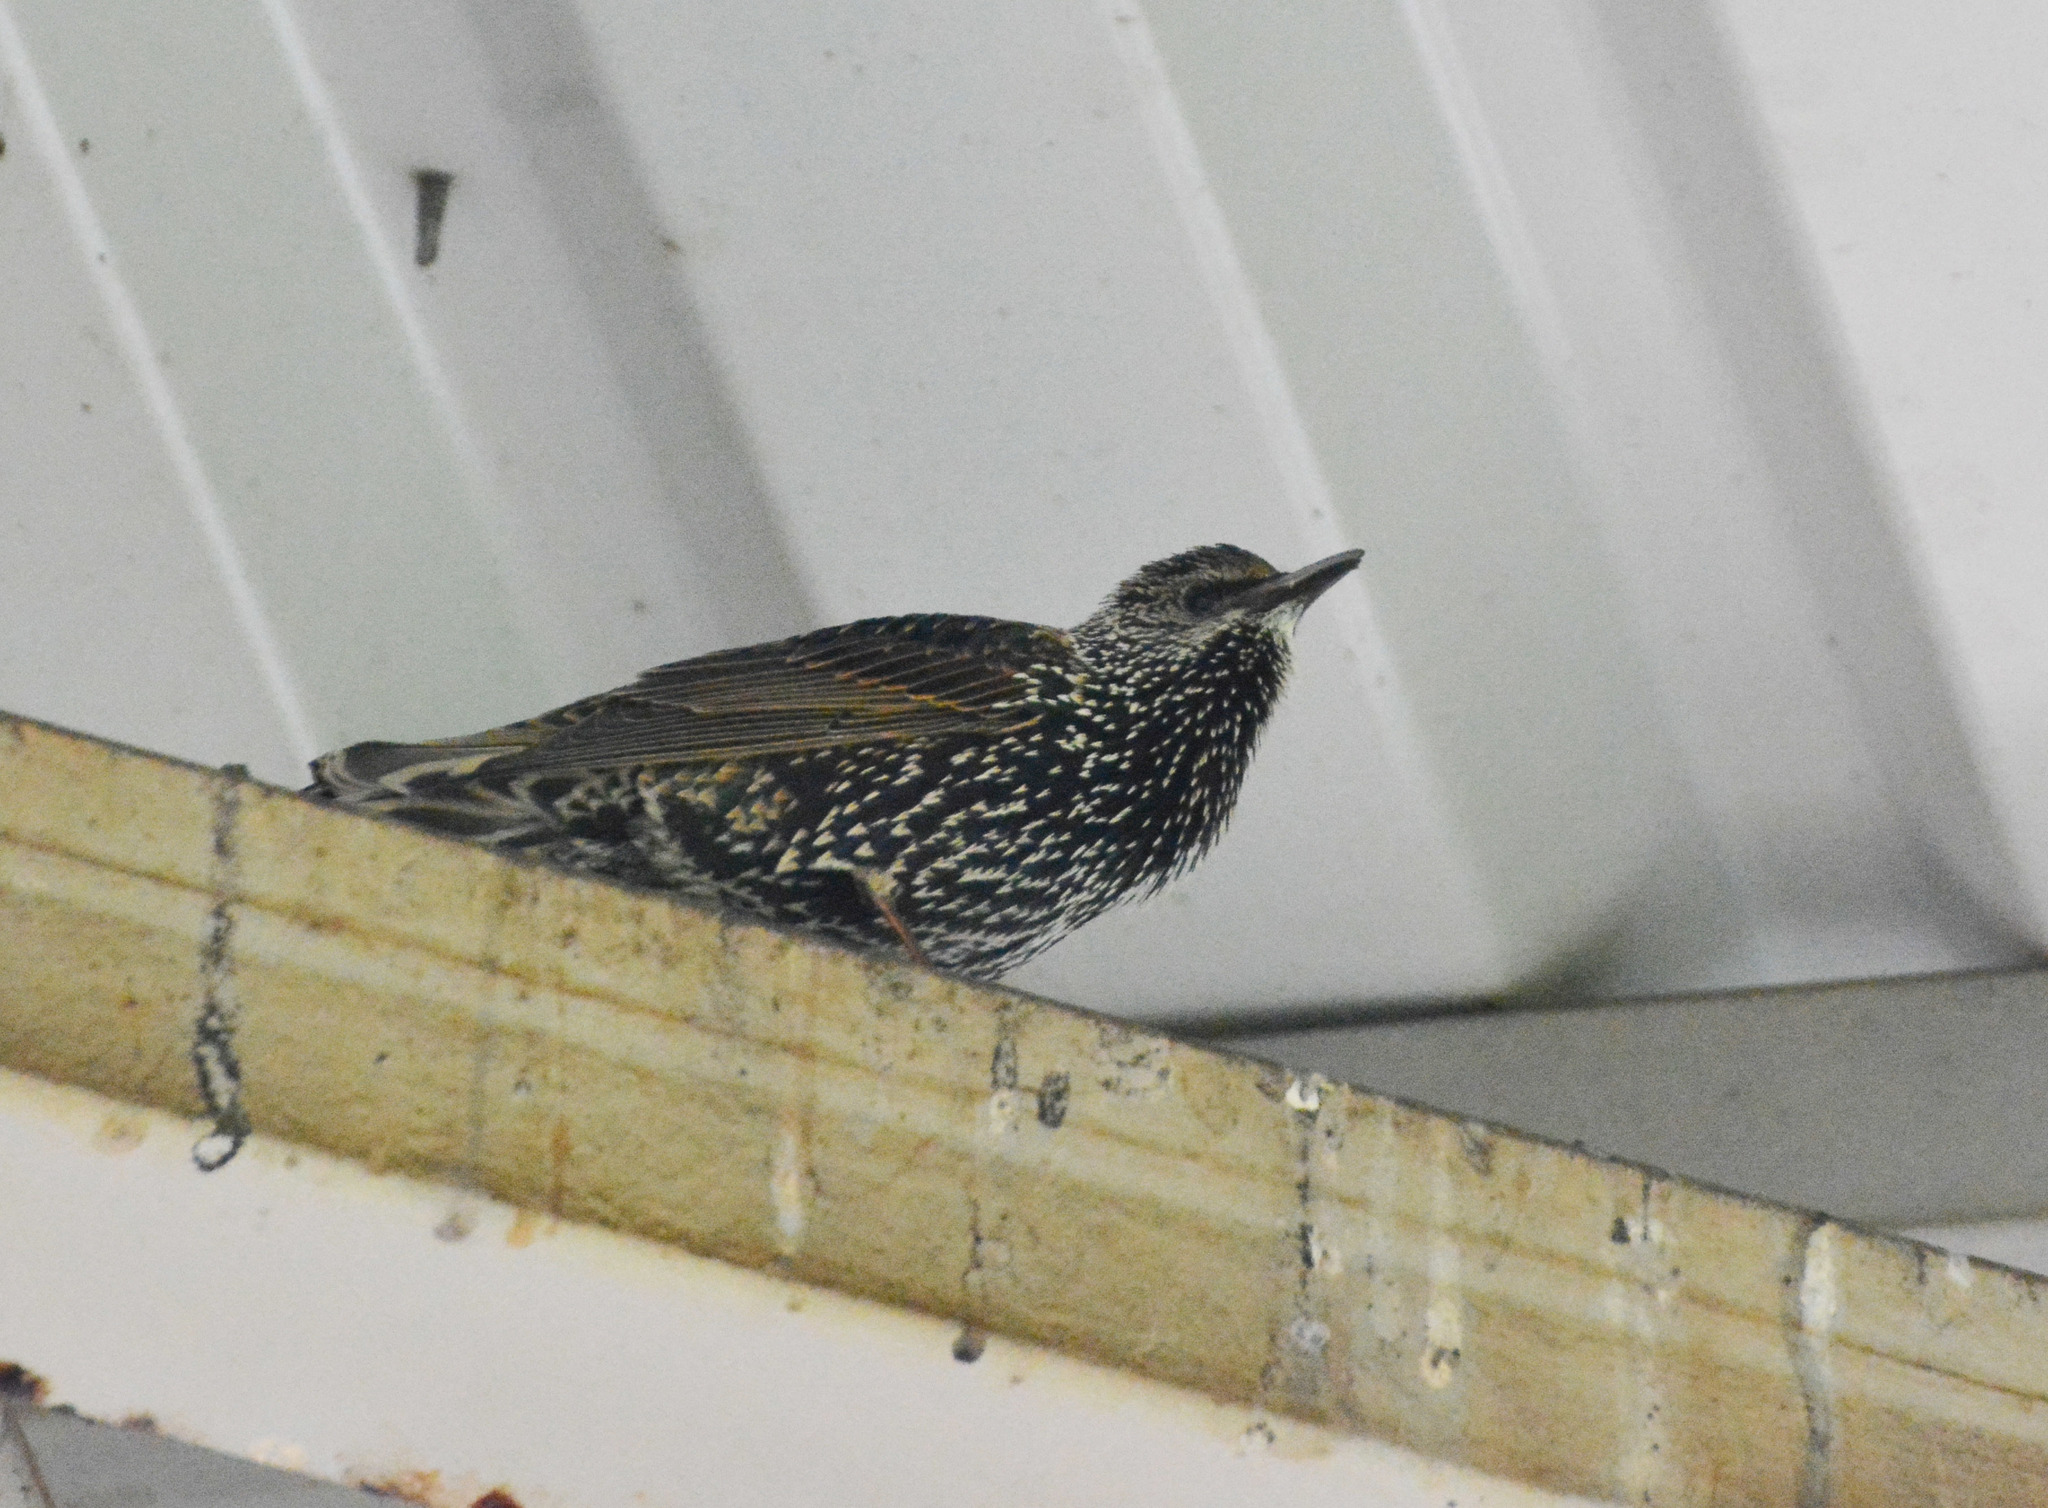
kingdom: Animalia
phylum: Chordata
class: Aves
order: Passeriformes
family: Sturnidae
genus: Sturnus
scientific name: Sturnus vulgaris
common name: Common starling
